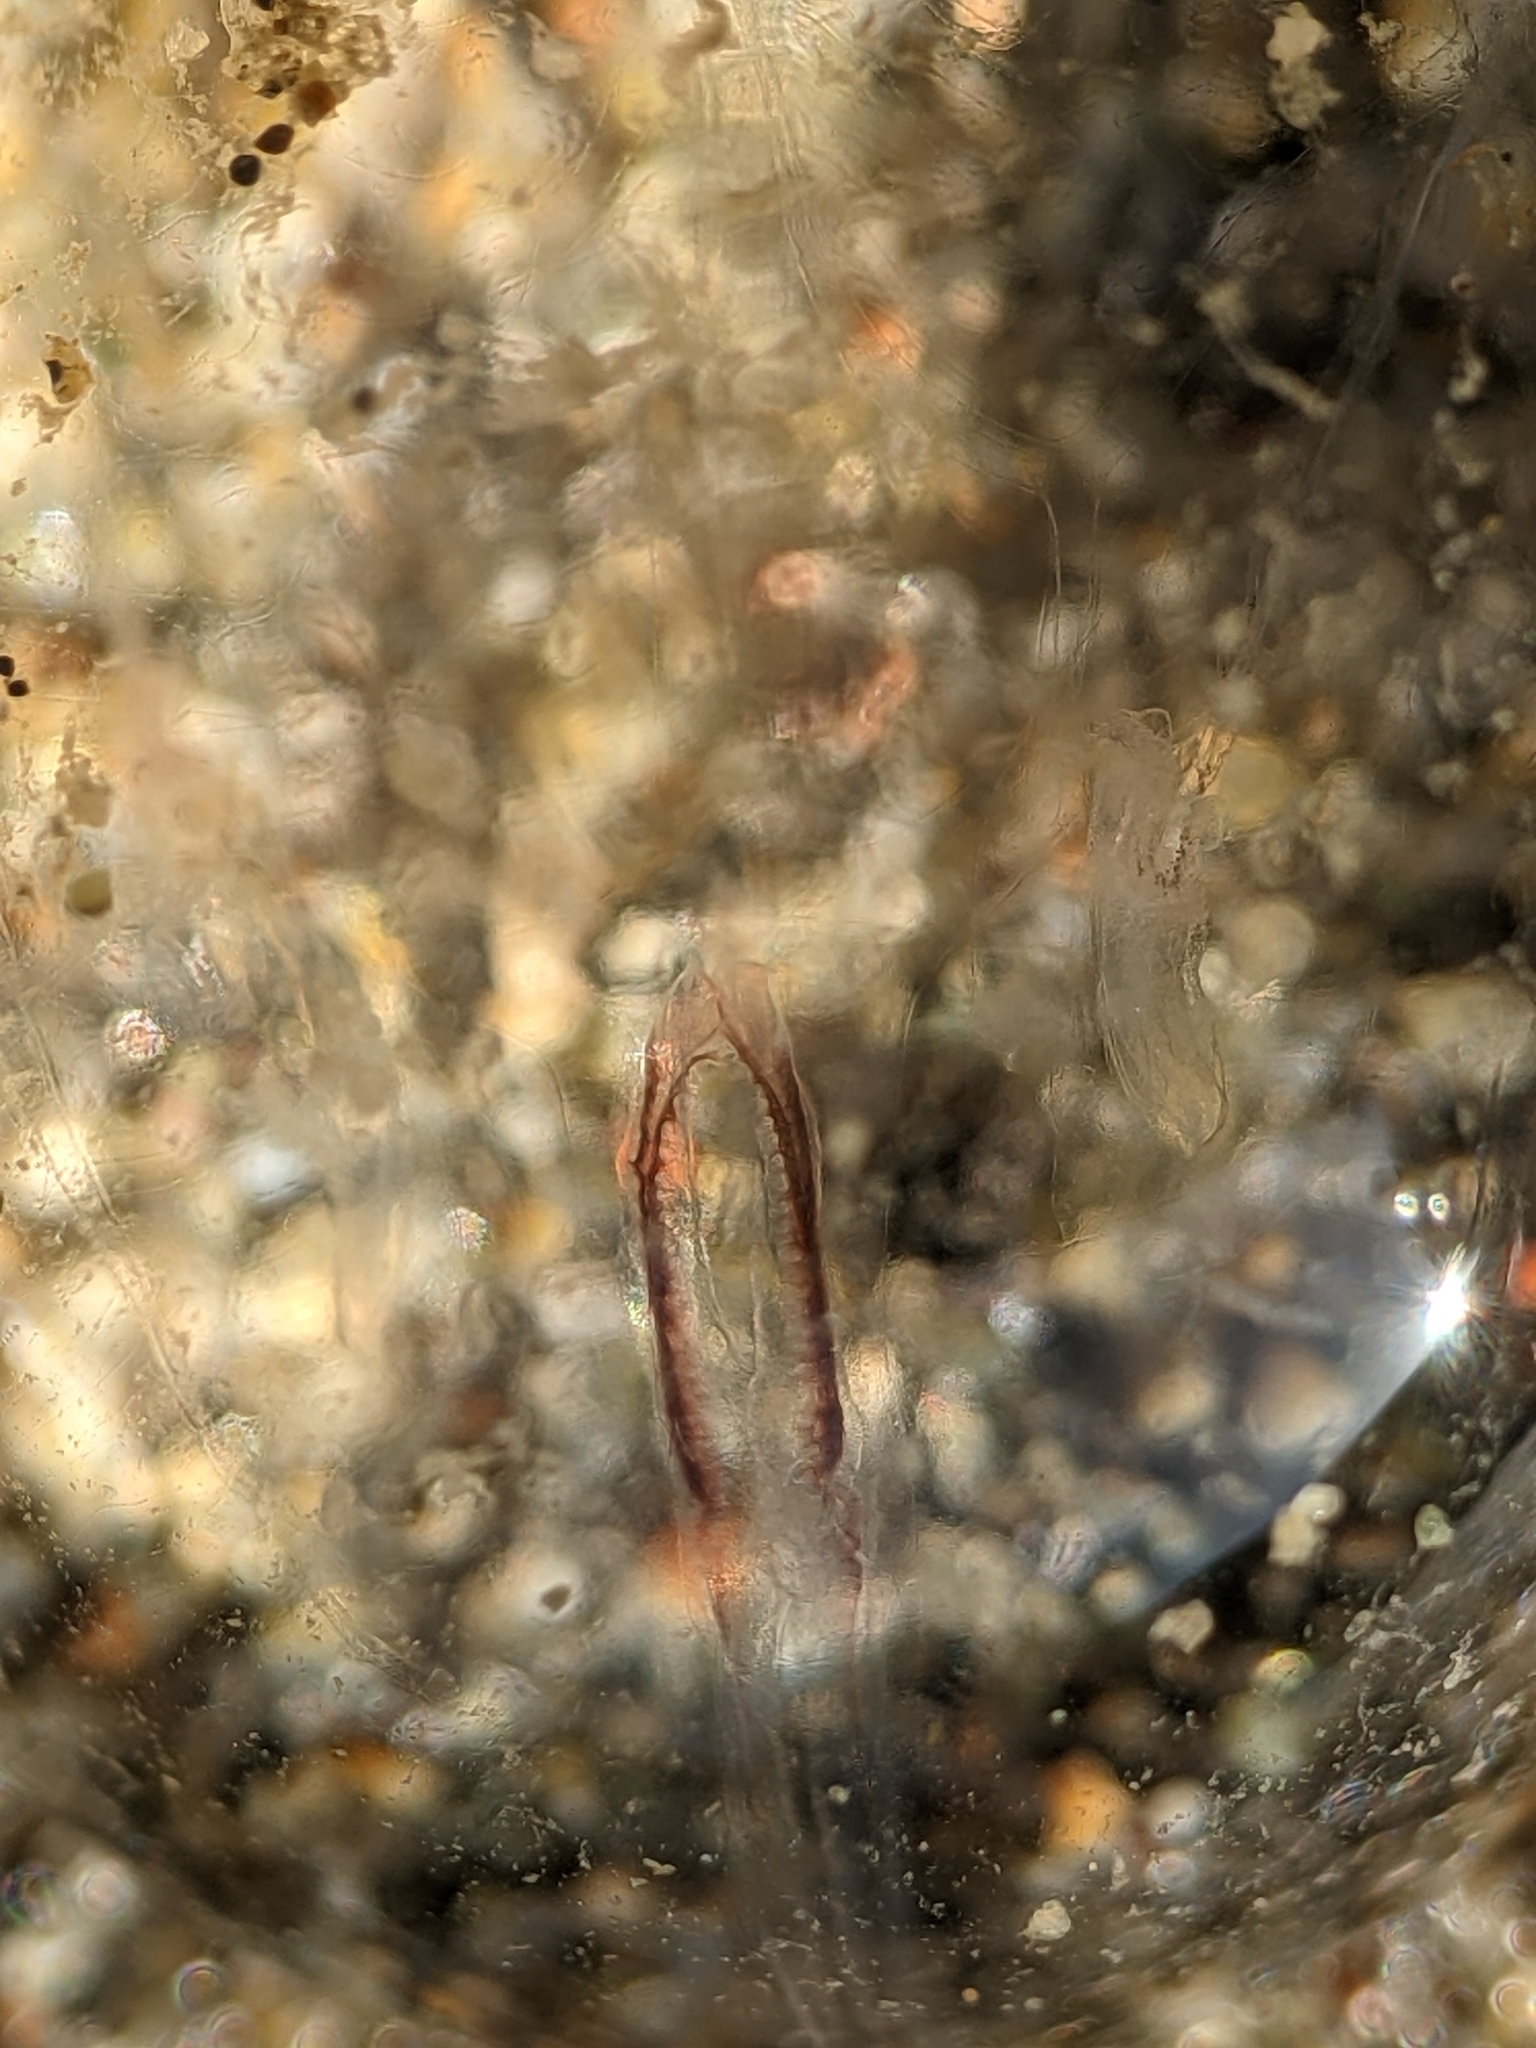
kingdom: Animalia
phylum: Ctenophora
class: Tentaculata
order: Cydippida
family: Pleurobrachiidae
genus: Pleurobrachia
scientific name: Pleurobrachia bachei
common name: Pacific sea gooseberry
